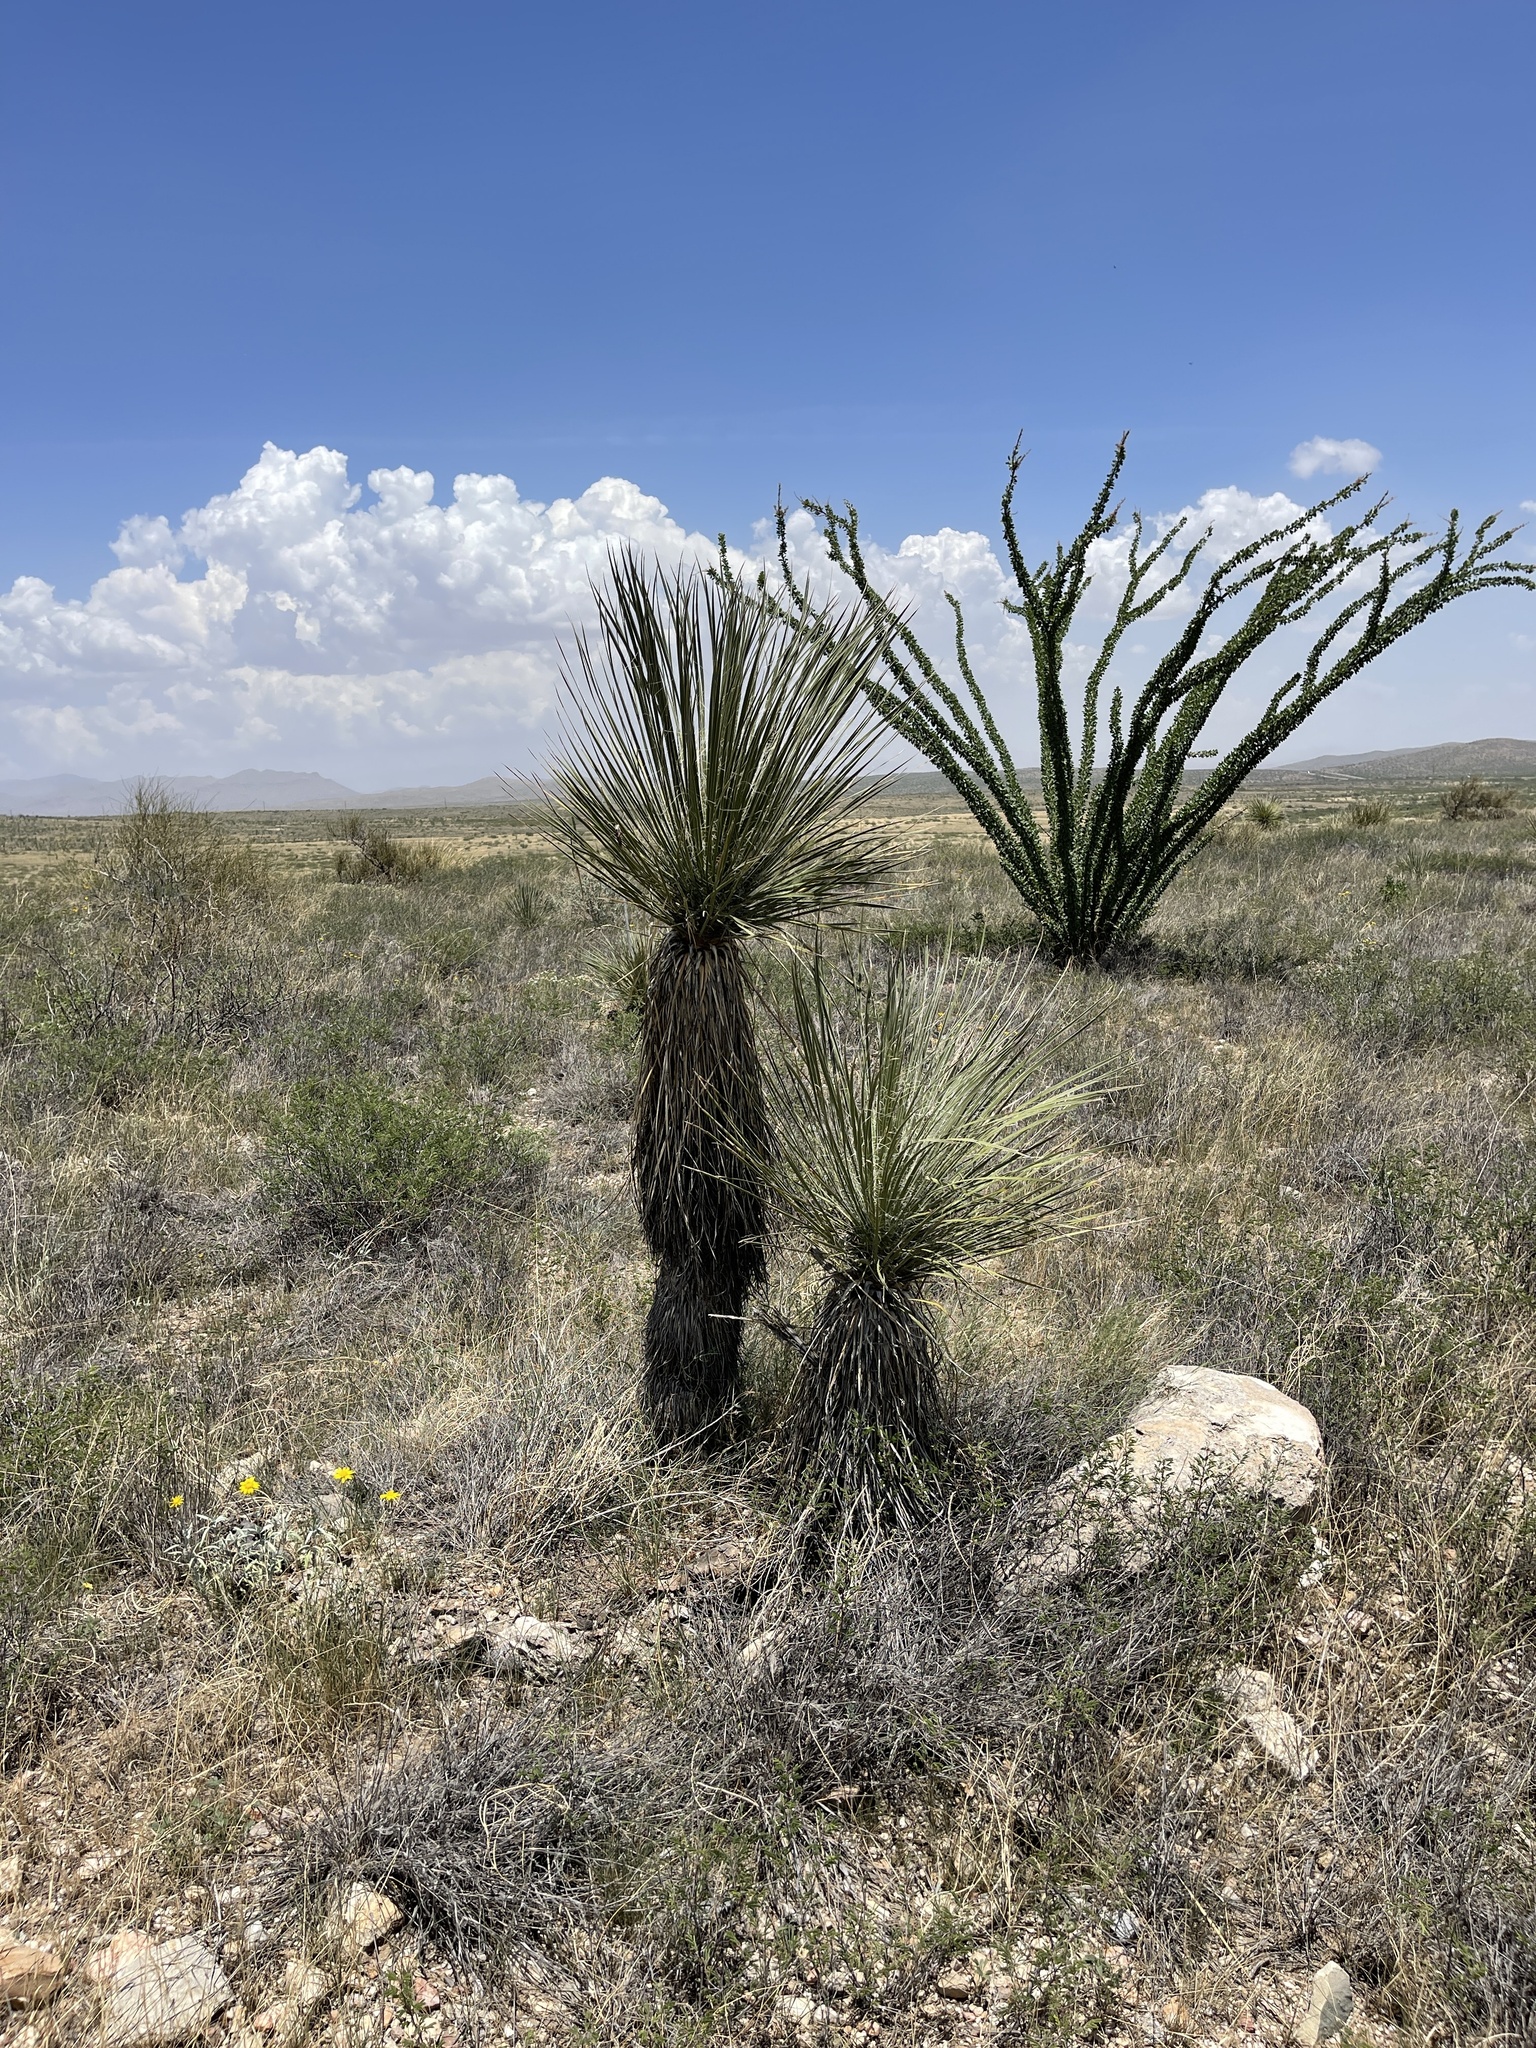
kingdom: Plantae
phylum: Tracheophyta
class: Liliopsida
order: Asparagales
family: Asparagaceae
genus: Yucca
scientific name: Yucca elata
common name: Palmella
